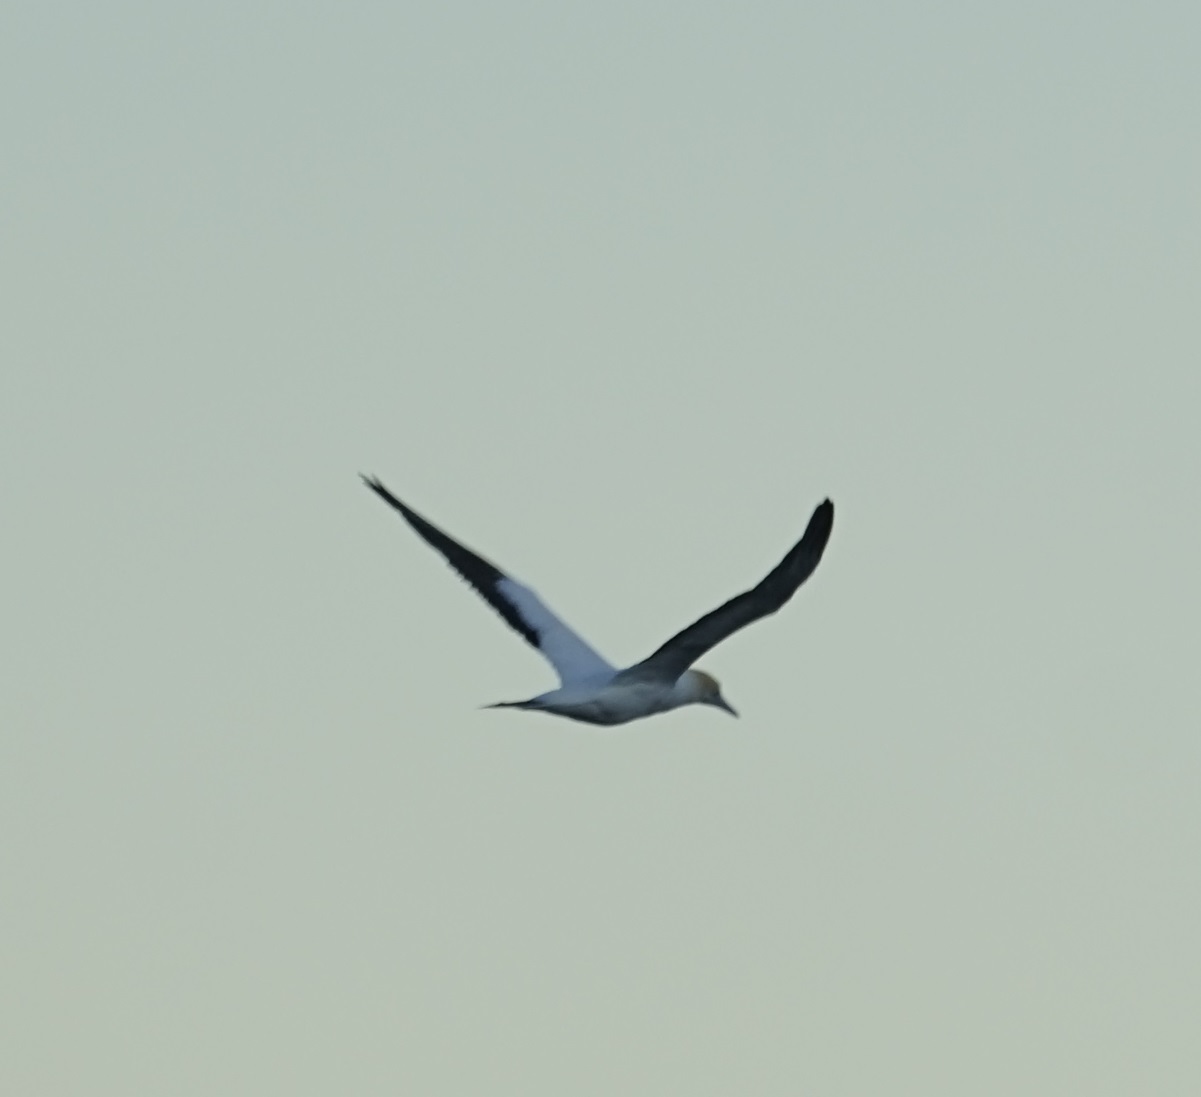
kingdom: Animalia
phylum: Chordata
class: Aves
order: Suliformes
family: Sulidae
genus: Morus
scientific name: Morus serrator
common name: Australasian gannet
